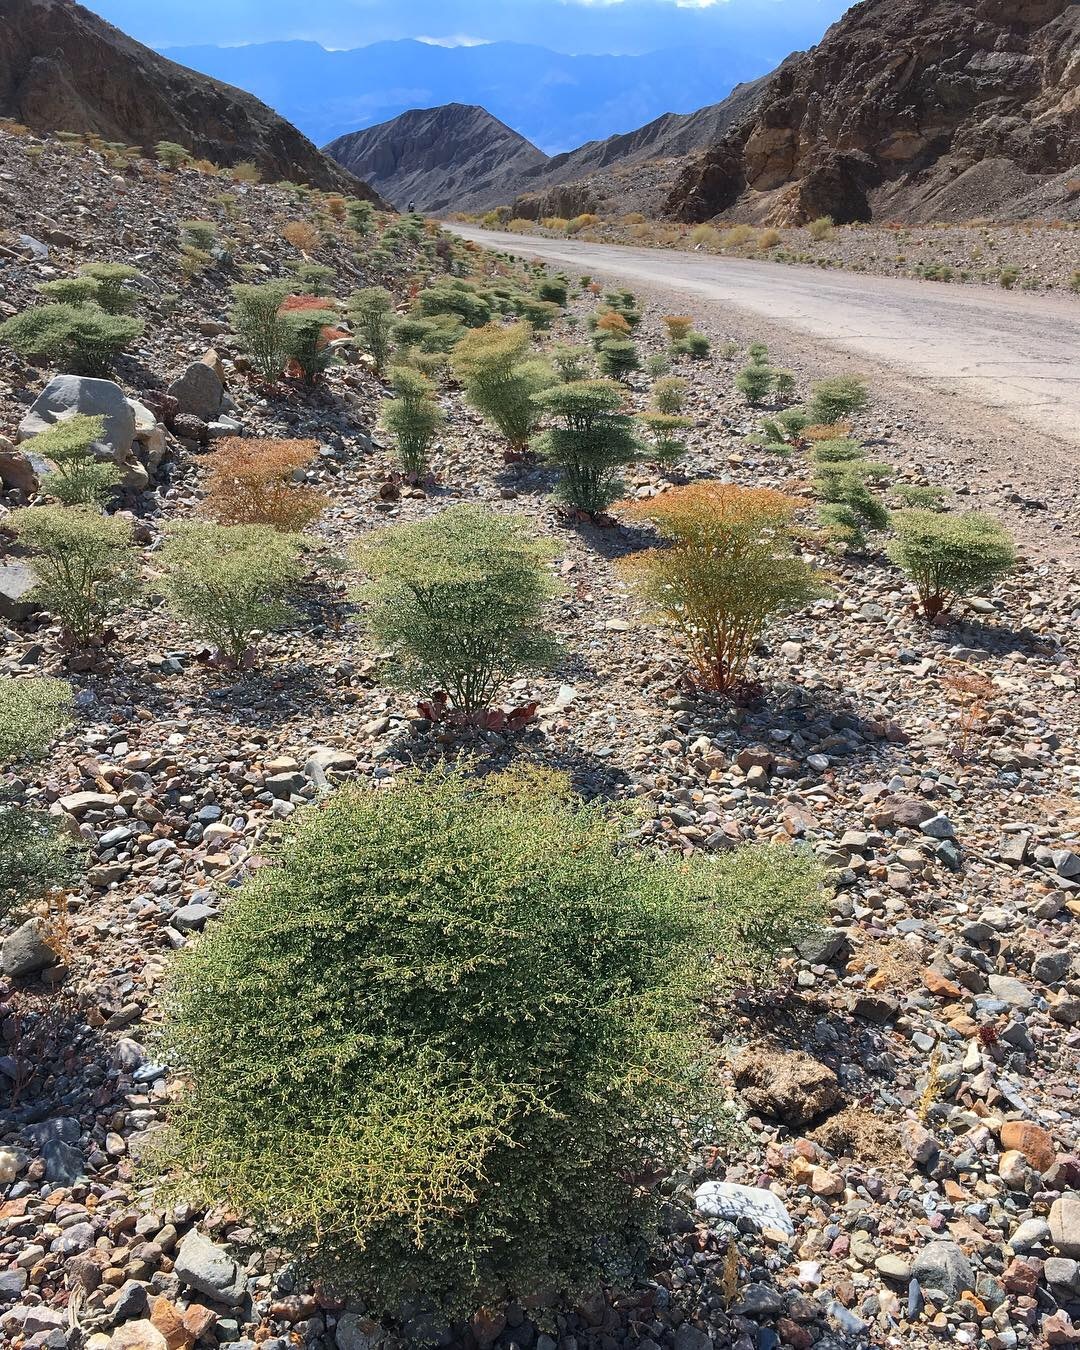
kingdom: Plantae
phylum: Tracheophyta
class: Magnoliopsida
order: Caryophyllales
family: Polygonaceae
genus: Eriogonum
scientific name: Eriogonum rixfordii
